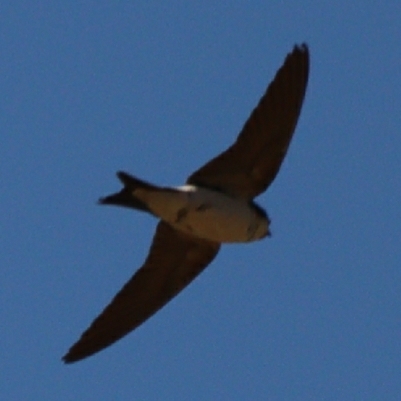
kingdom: Animalia
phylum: Chordata
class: Aves
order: Passeriformes
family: Hirundinidae
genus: Delichon
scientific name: Delichon urbicum
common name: Common house martin
